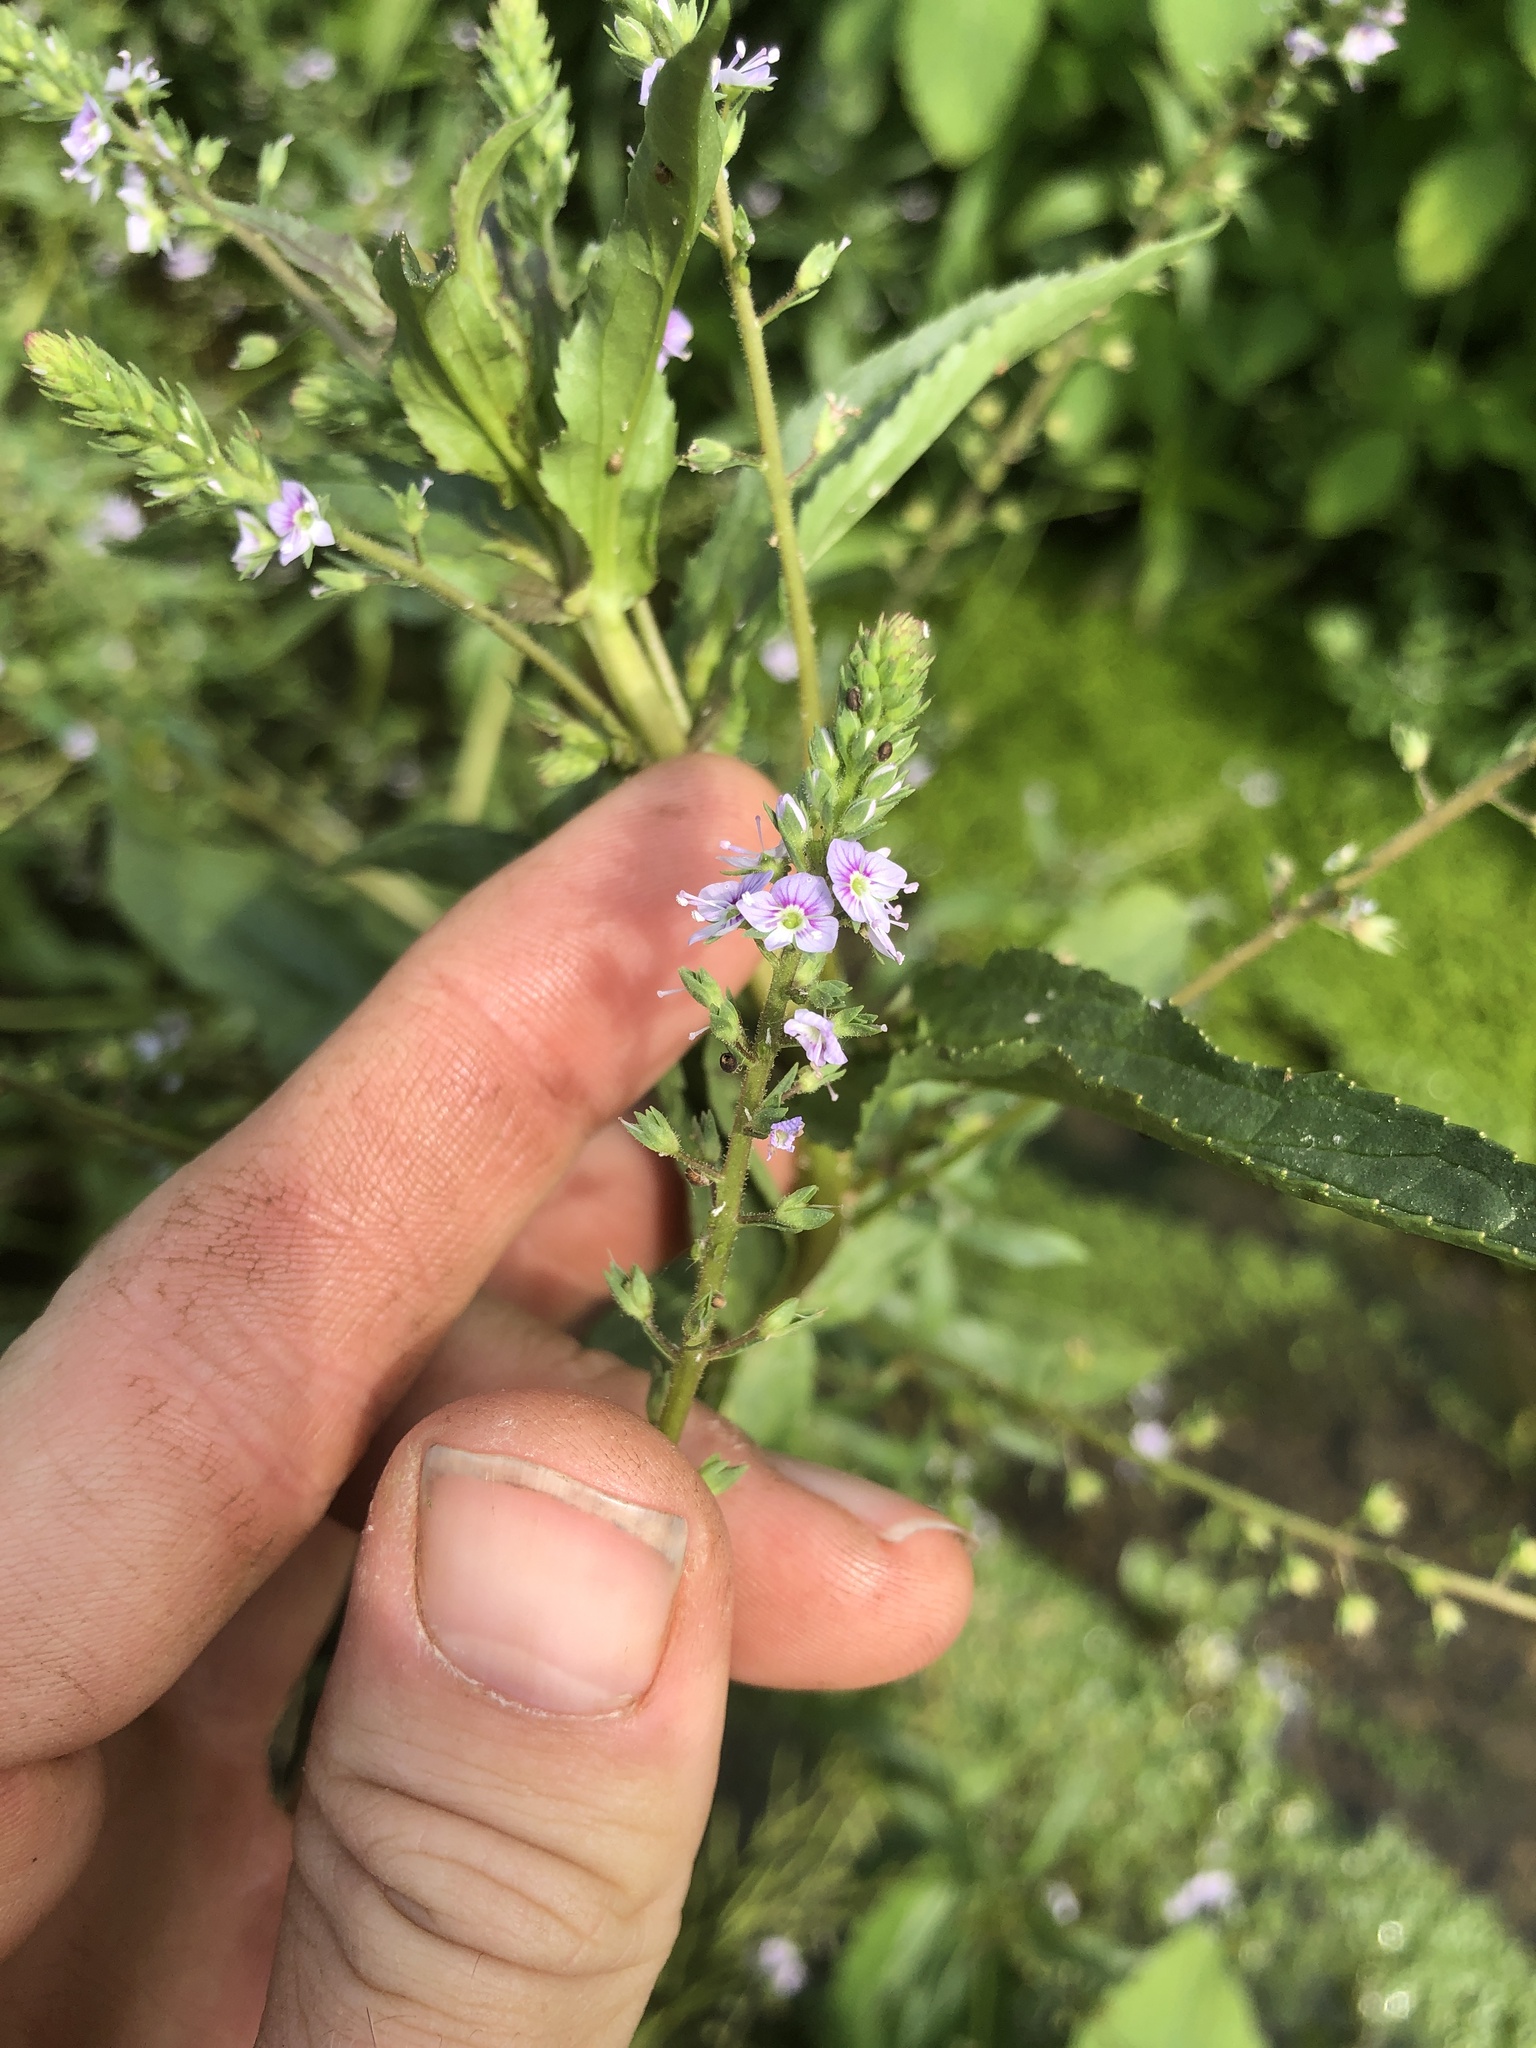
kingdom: Plantae
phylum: Tracheophyta
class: Magnoliopsida
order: Lamiales
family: Plantaginaceae
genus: Veronica
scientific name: Veronica anagallis-aquatica
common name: Water speedwell
